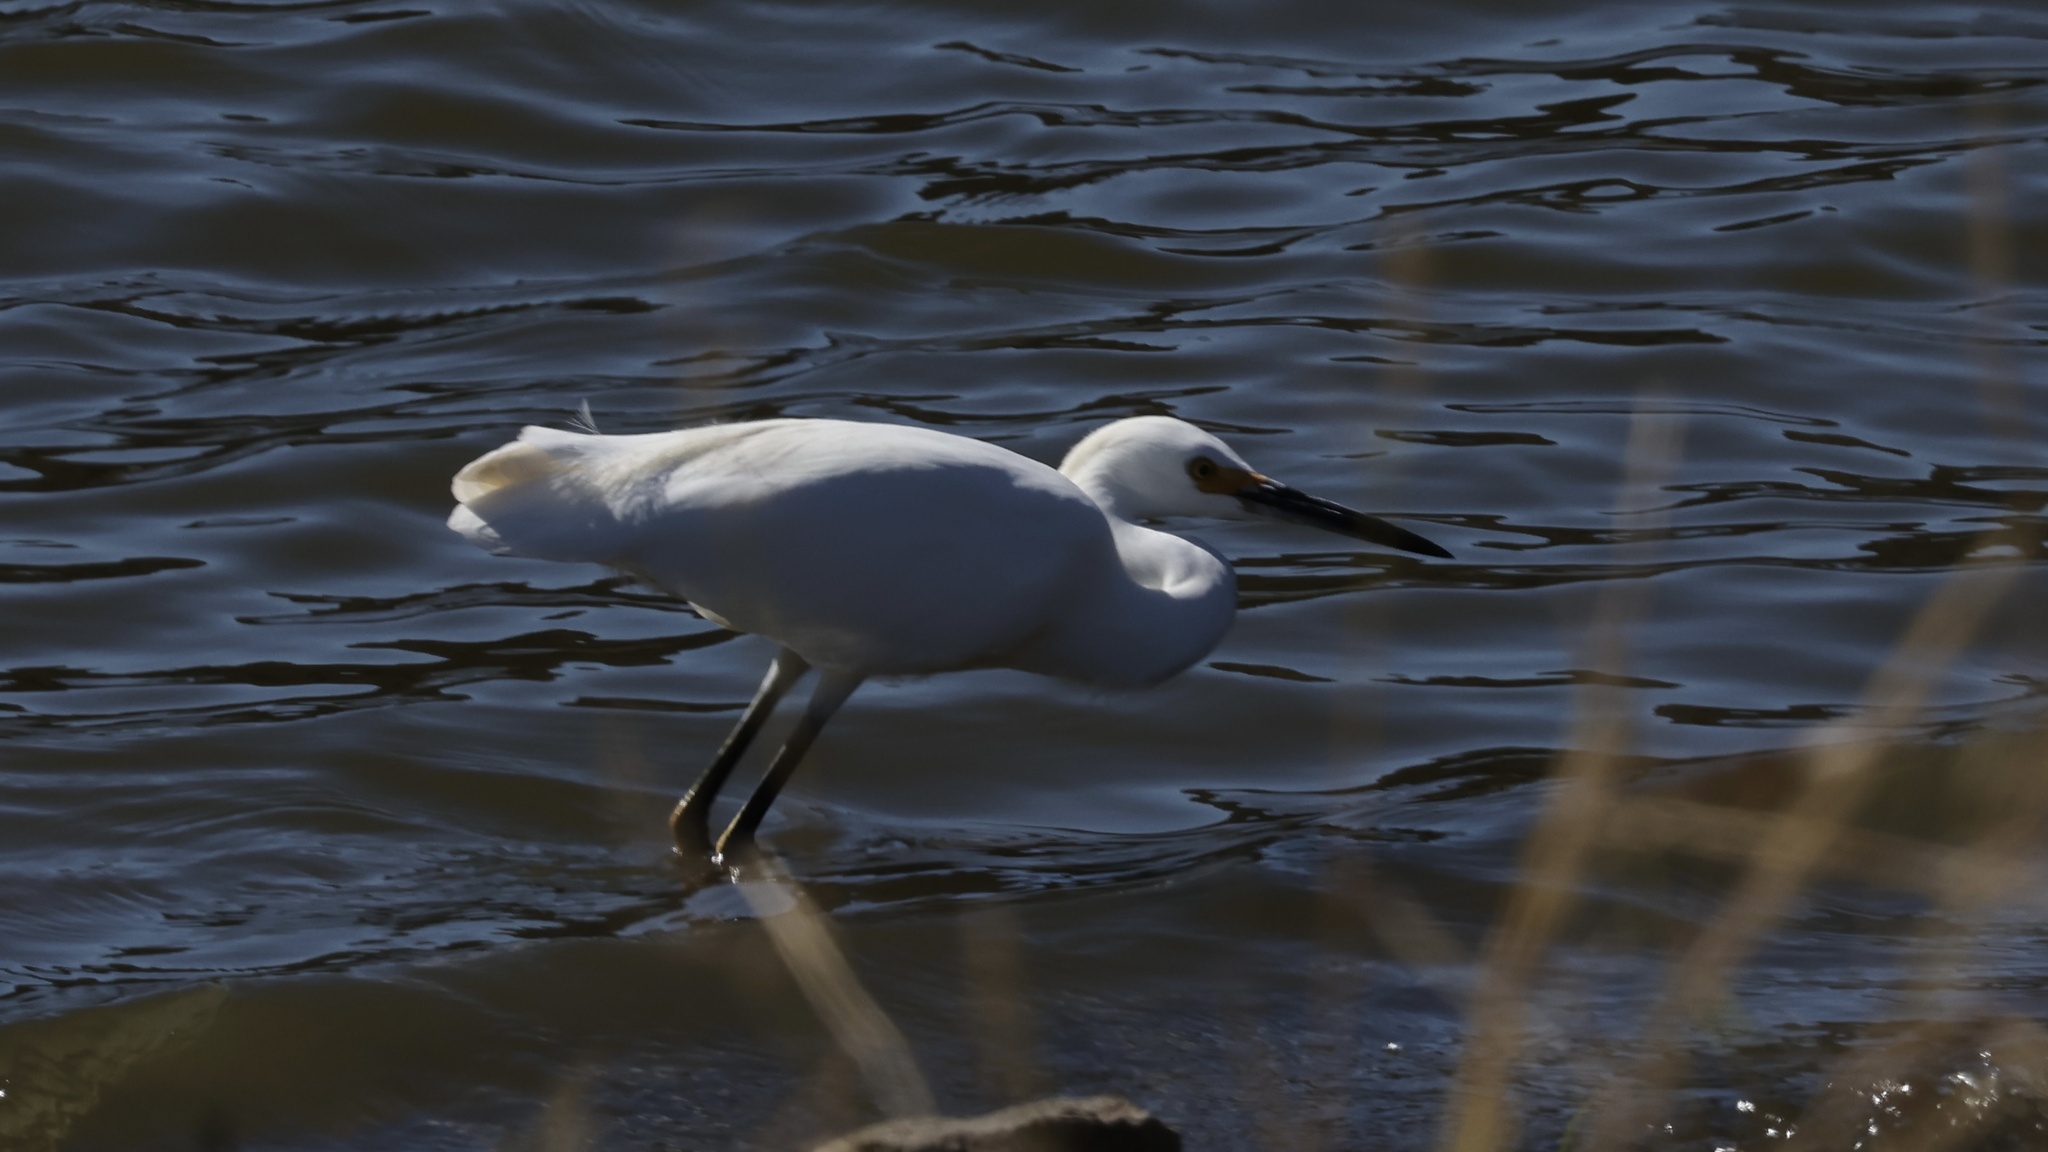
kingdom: Animalia
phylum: Chordata
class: Aves
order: Pelecaniformes
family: Ardeidae
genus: Egretta
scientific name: Egretta thula
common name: Snowy egret
